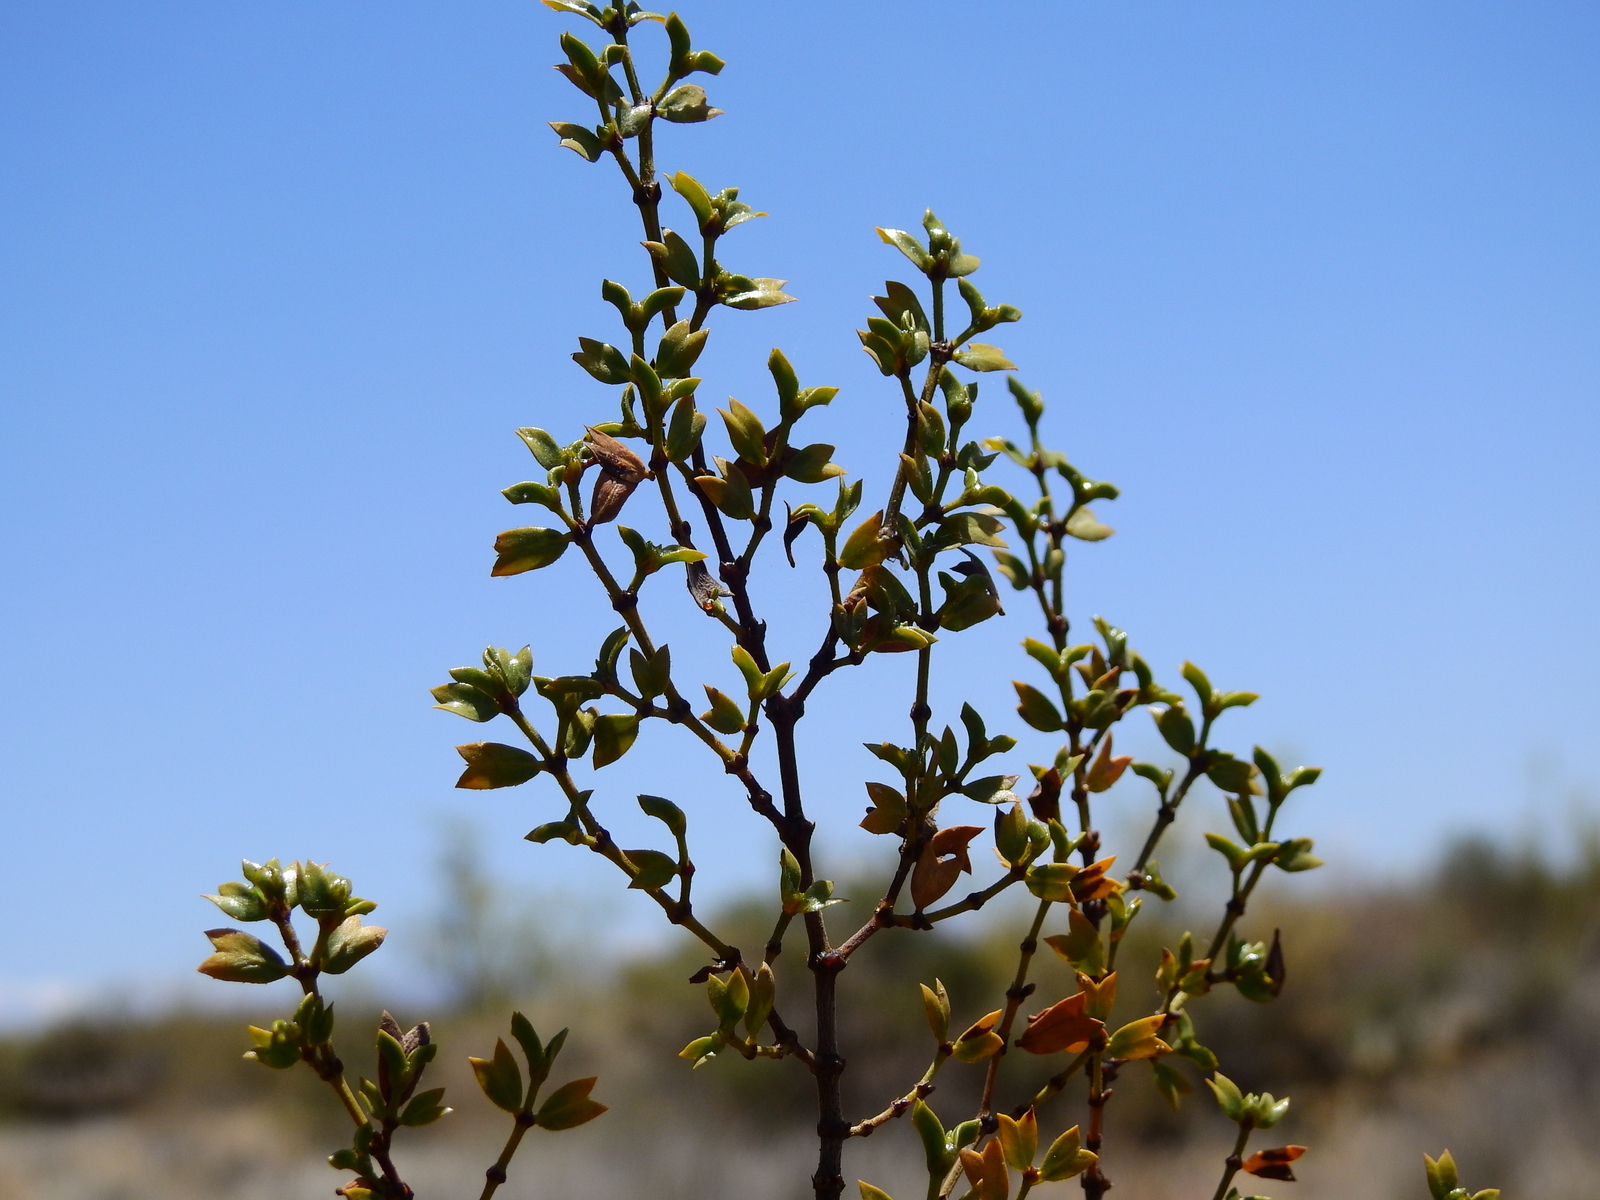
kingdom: Plantae
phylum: Tracheophyta
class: Magnoliopsida
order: Zygophyllales
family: Zygophyllaceae
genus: Larrea
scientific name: Larrea cuneifolia
